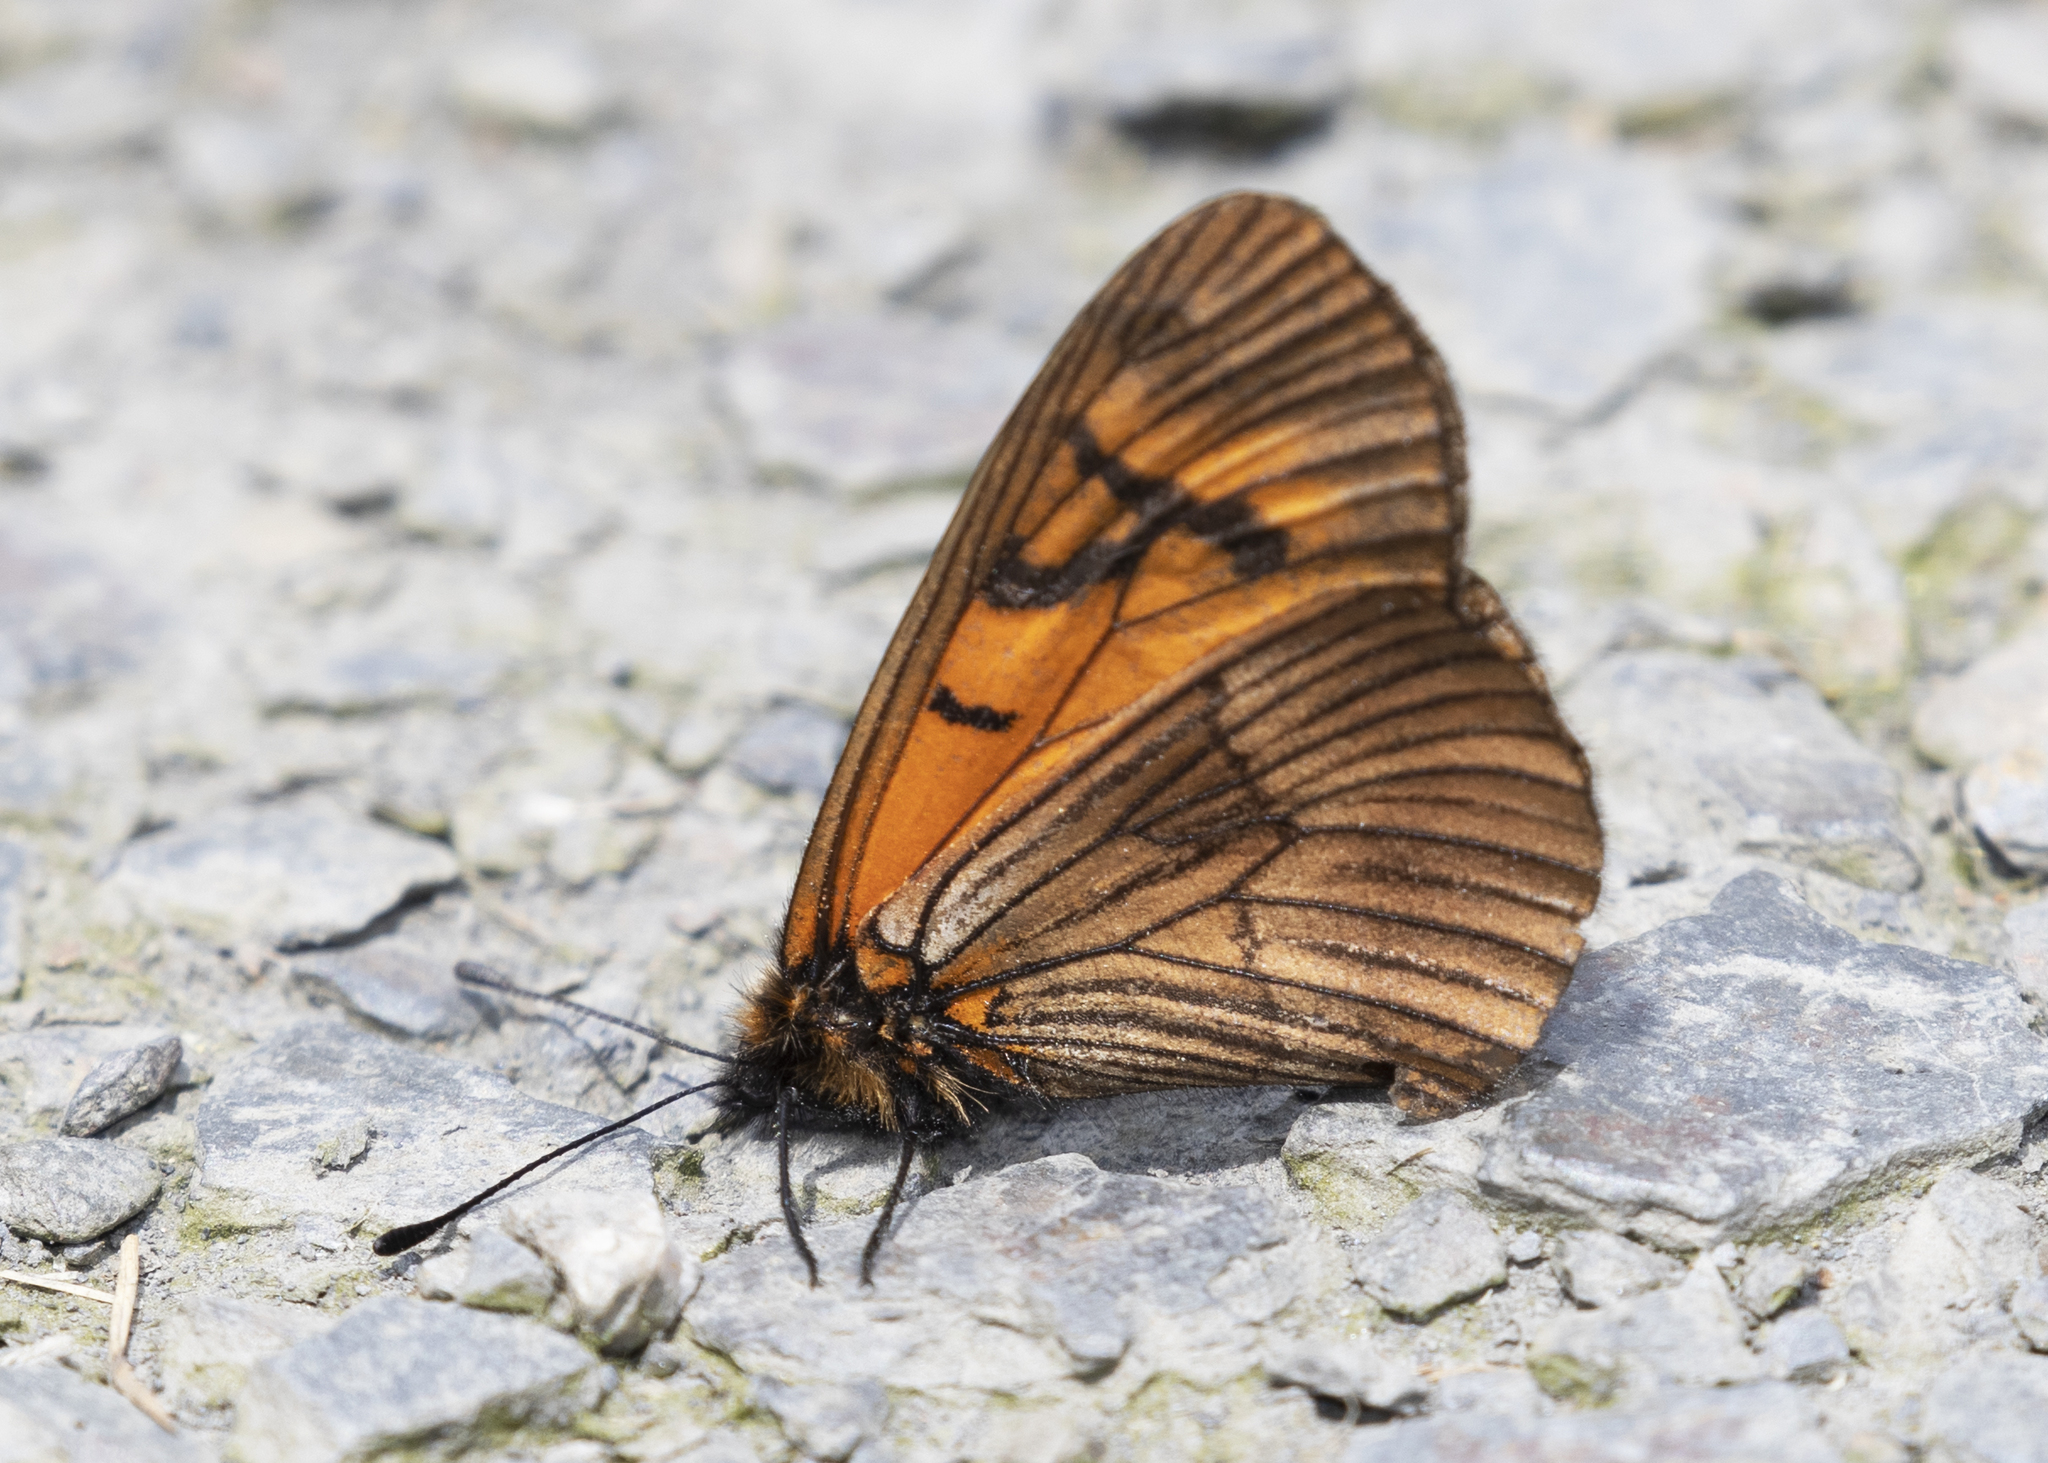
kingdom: Animalia
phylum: Arthropoda
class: Insecta
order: Lepidoptera
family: Nymphalidae
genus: Acraea
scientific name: Acraea Altinote eresia
